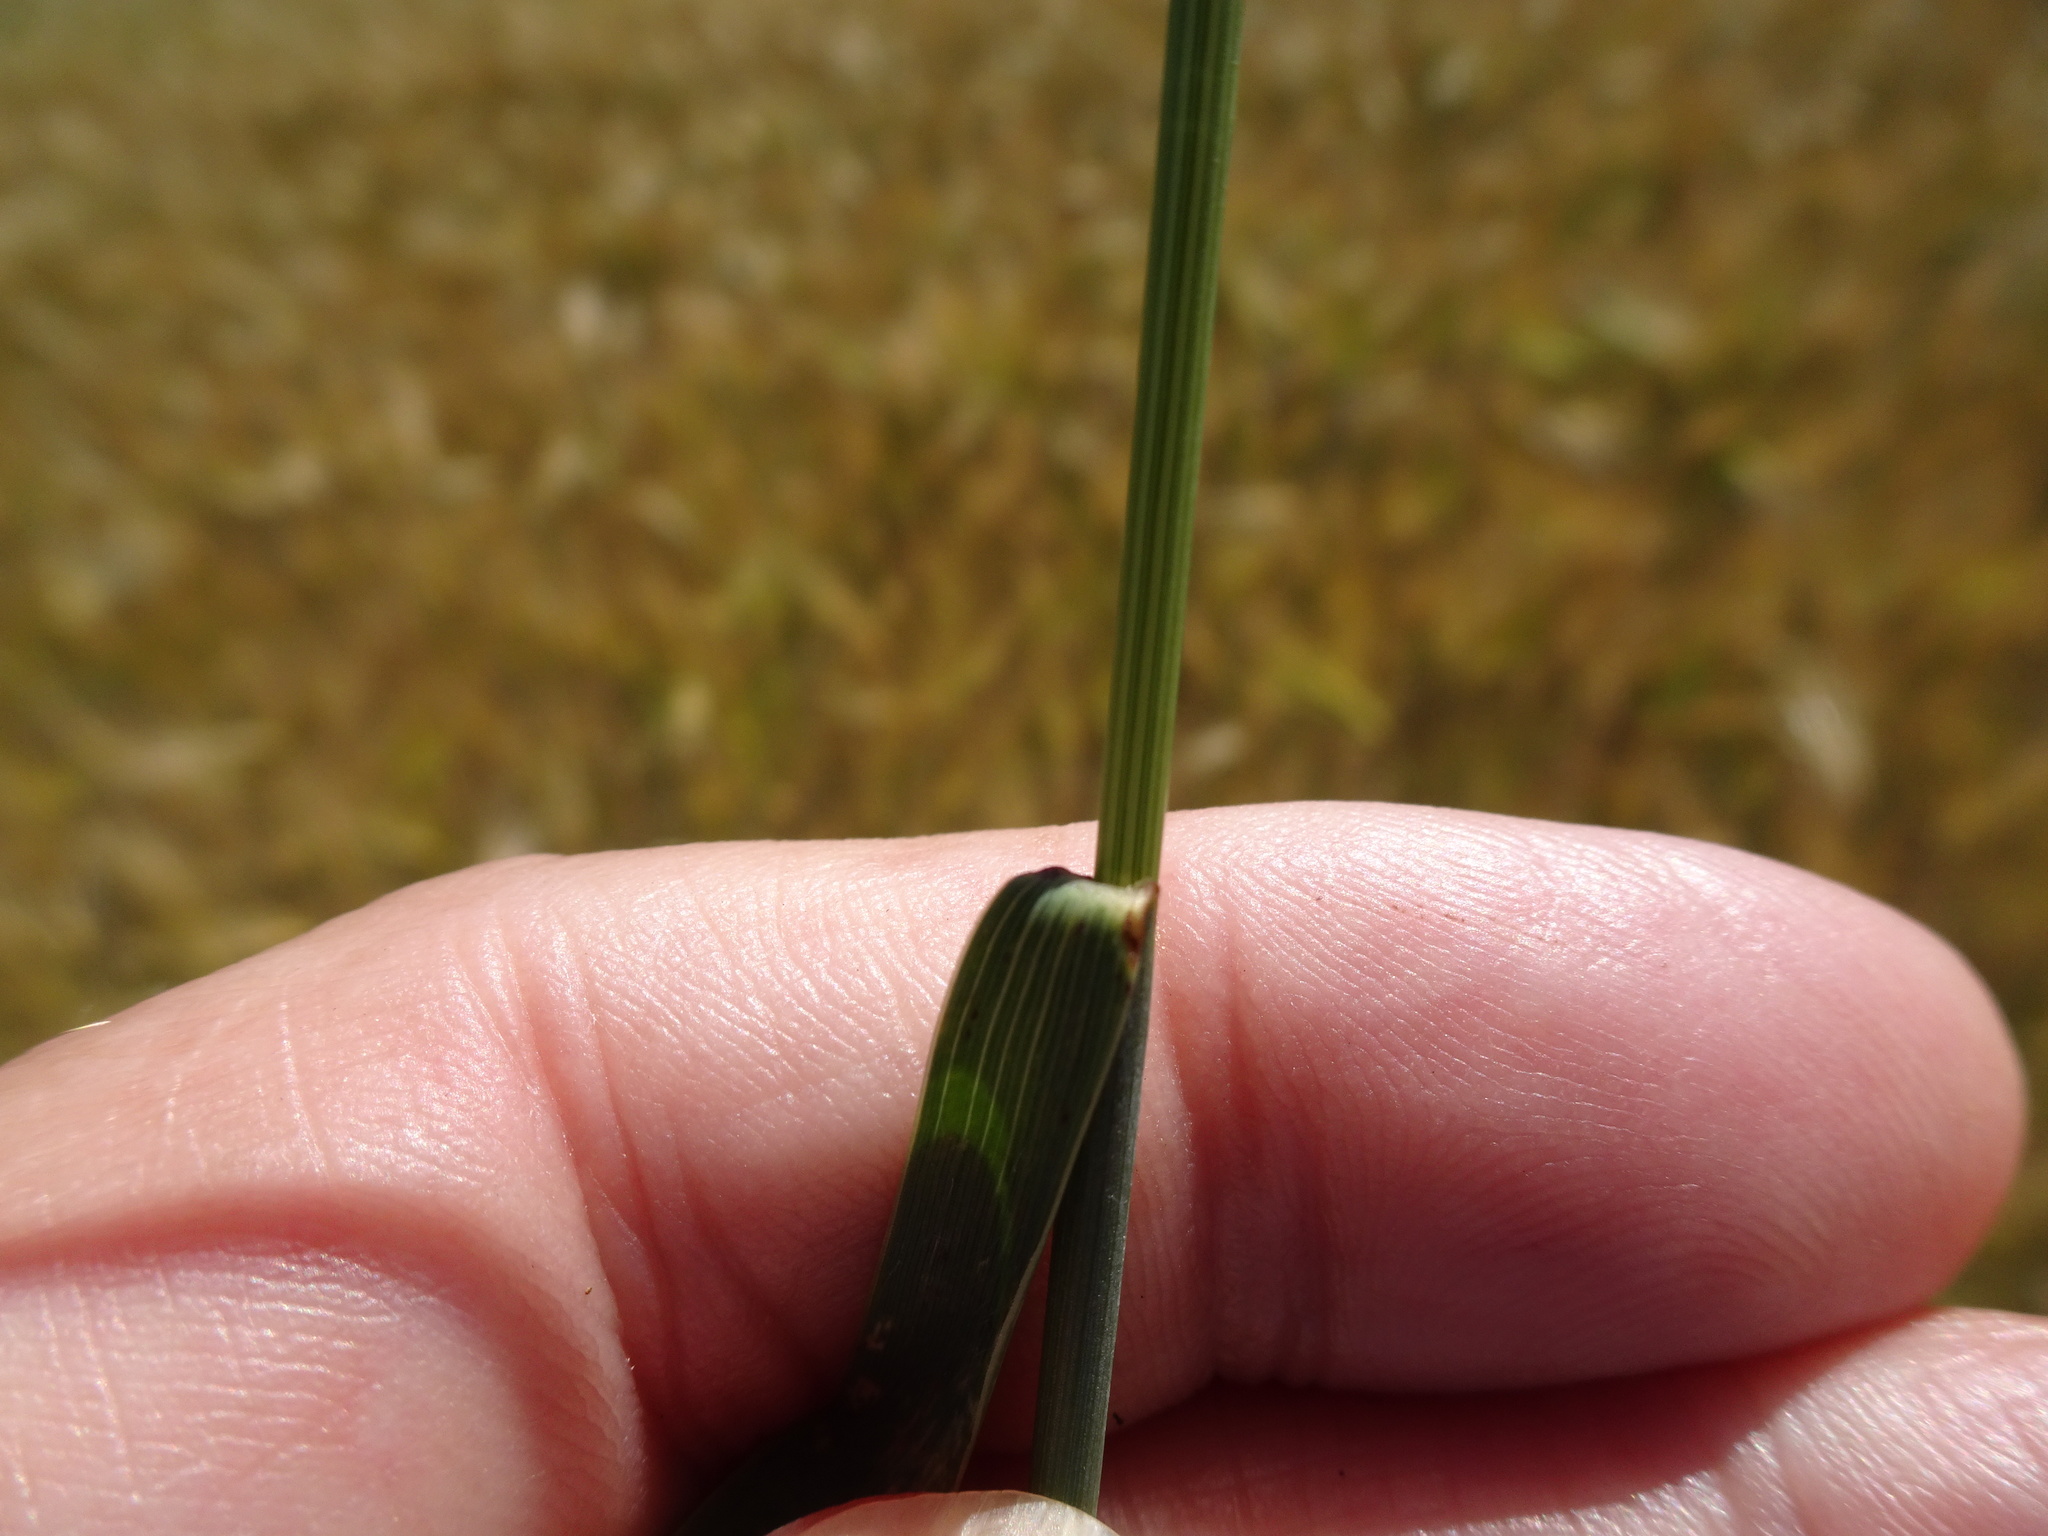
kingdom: Plantae
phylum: Tracheophyta
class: Liliopsida
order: Poales
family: Poaceae
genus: Elymus
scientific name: Elymus repens
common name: Quackgrass
